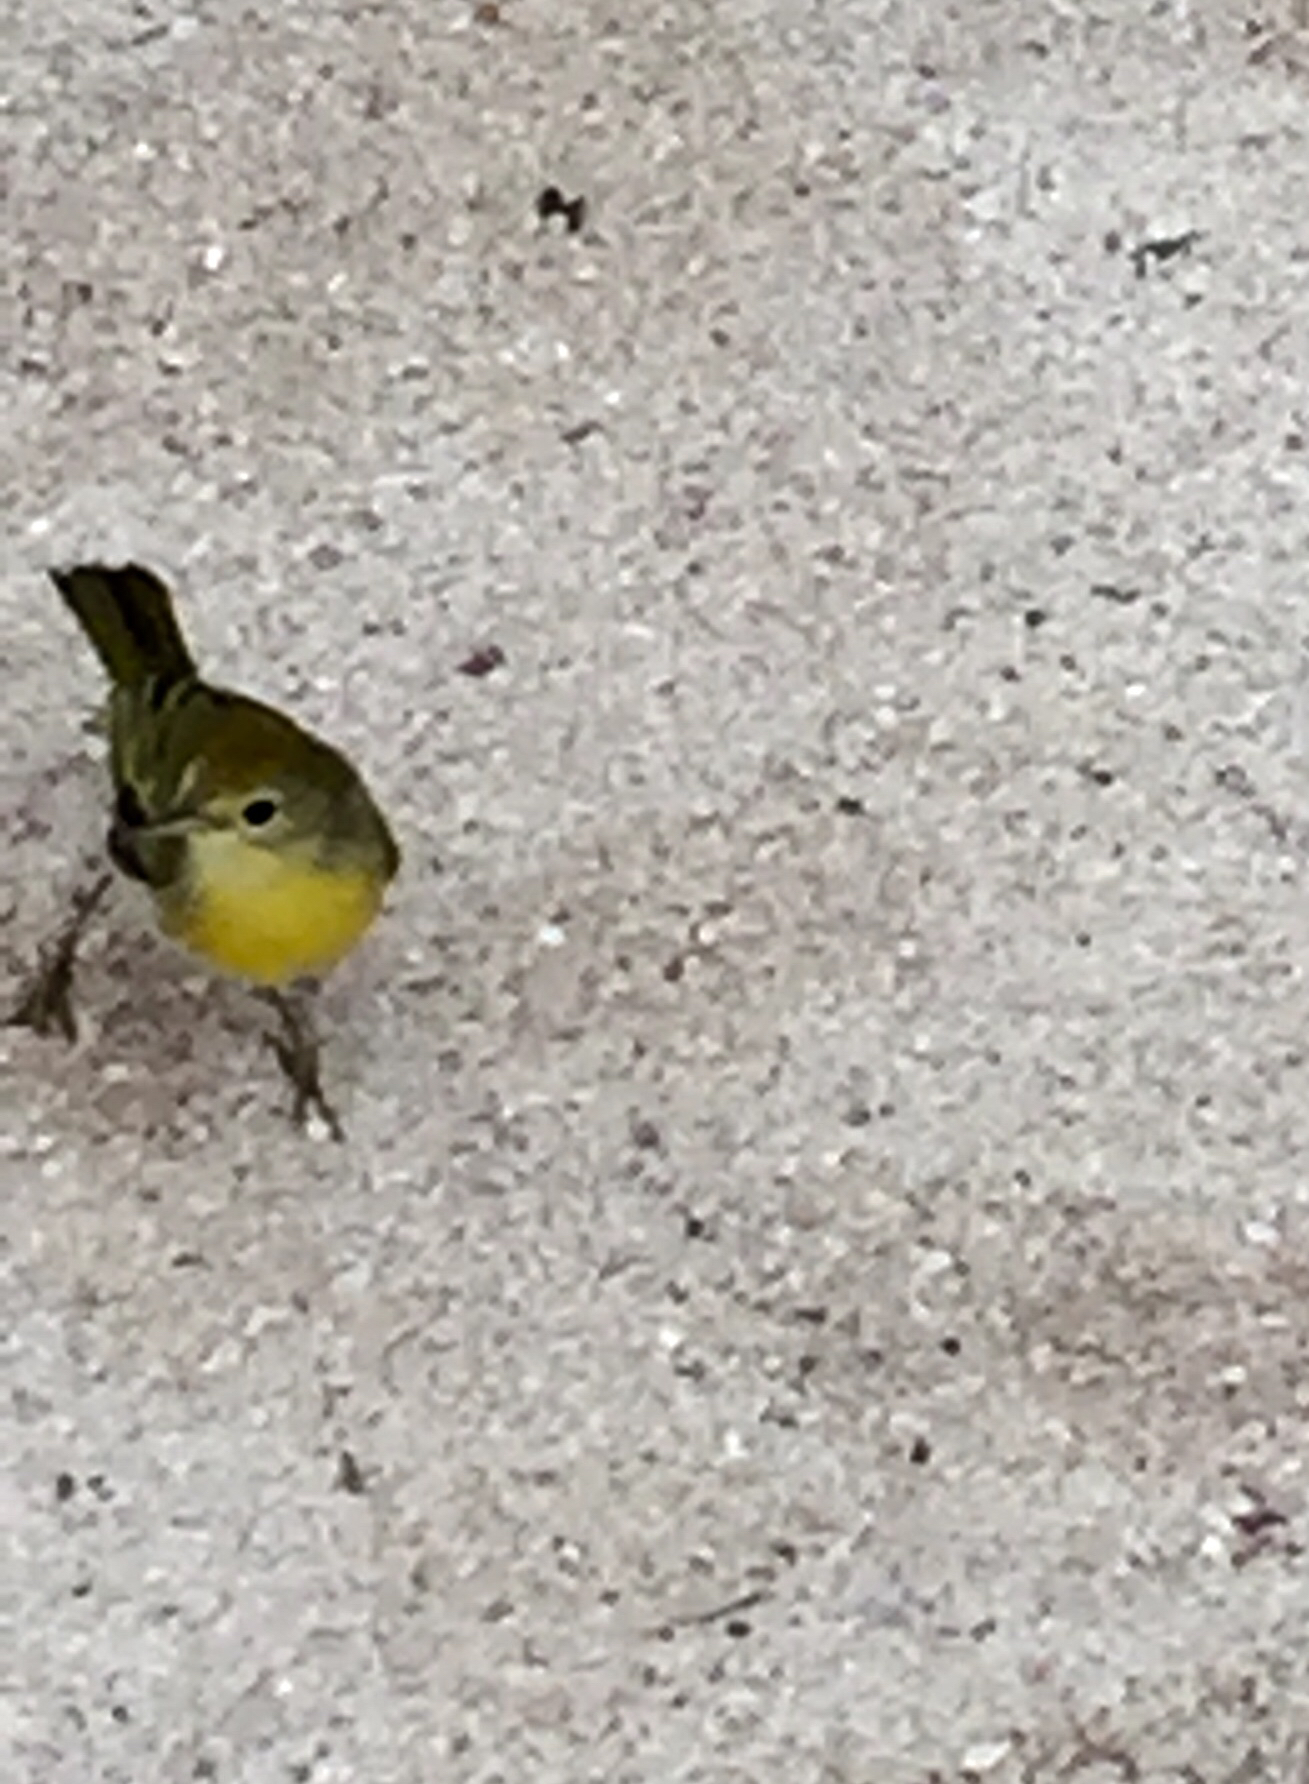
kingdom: Animalia
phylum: Chordata
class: Aves
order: Passeriformes
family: Parulidae
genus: Setophaga
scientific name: Setophaga petechia
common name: Yellow warbler
